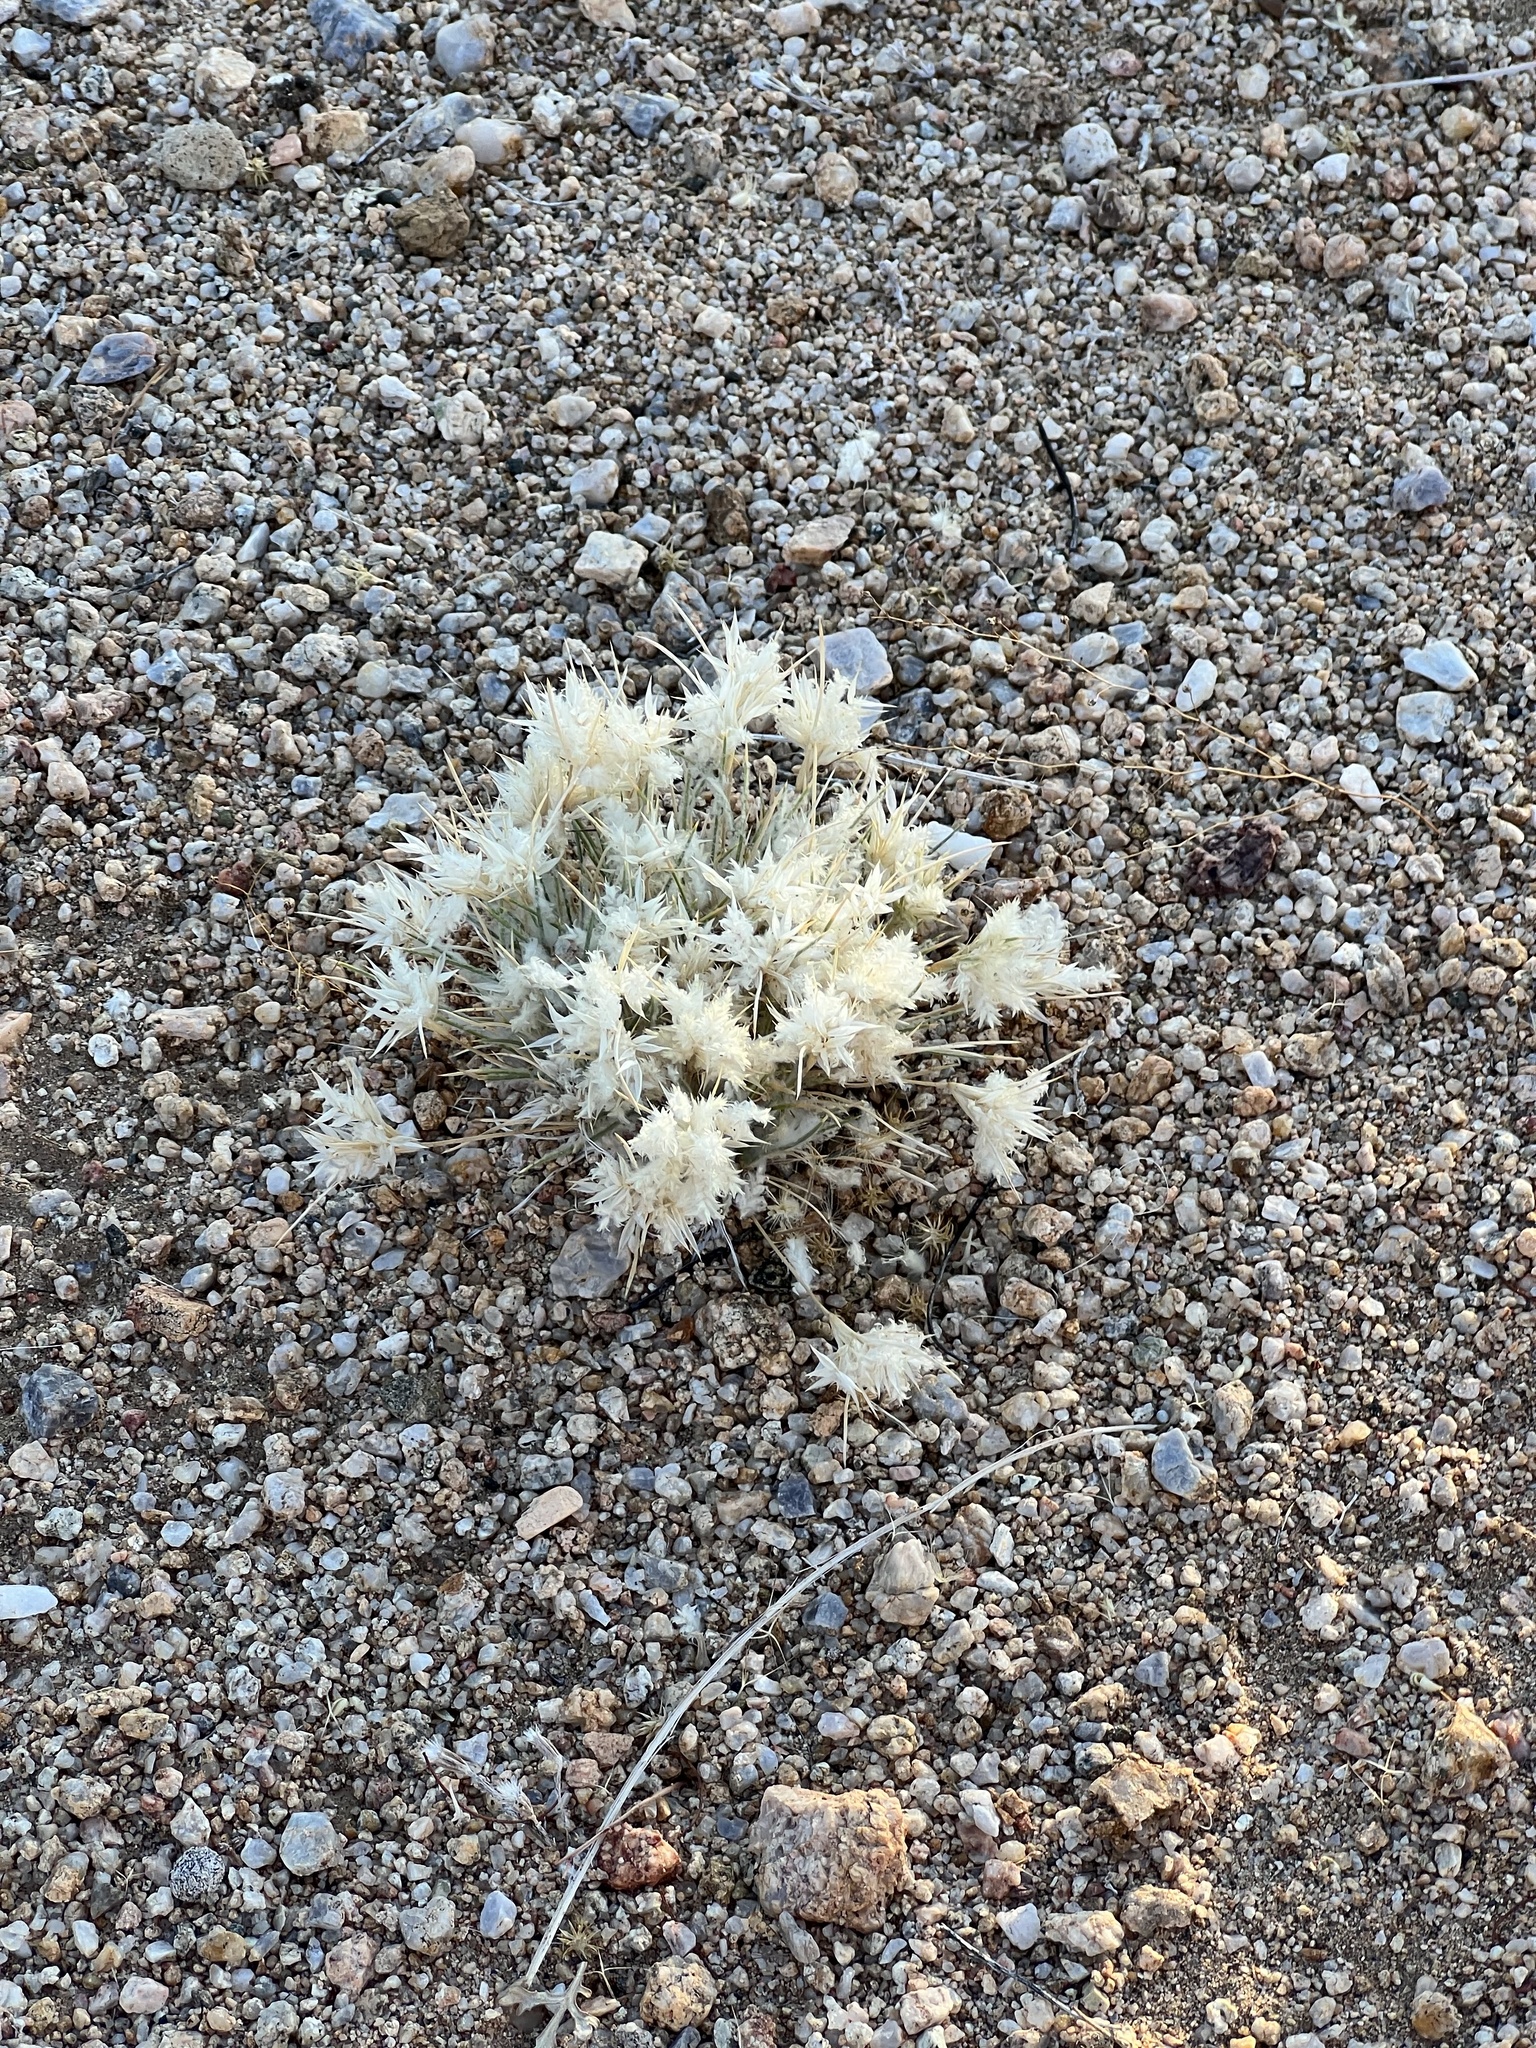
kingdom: Plantae
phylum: Tracheophyta
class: Liliopsida
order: Poales
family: Poaceae
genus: Dasyochloa
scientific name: Dasyochloa pulchella
